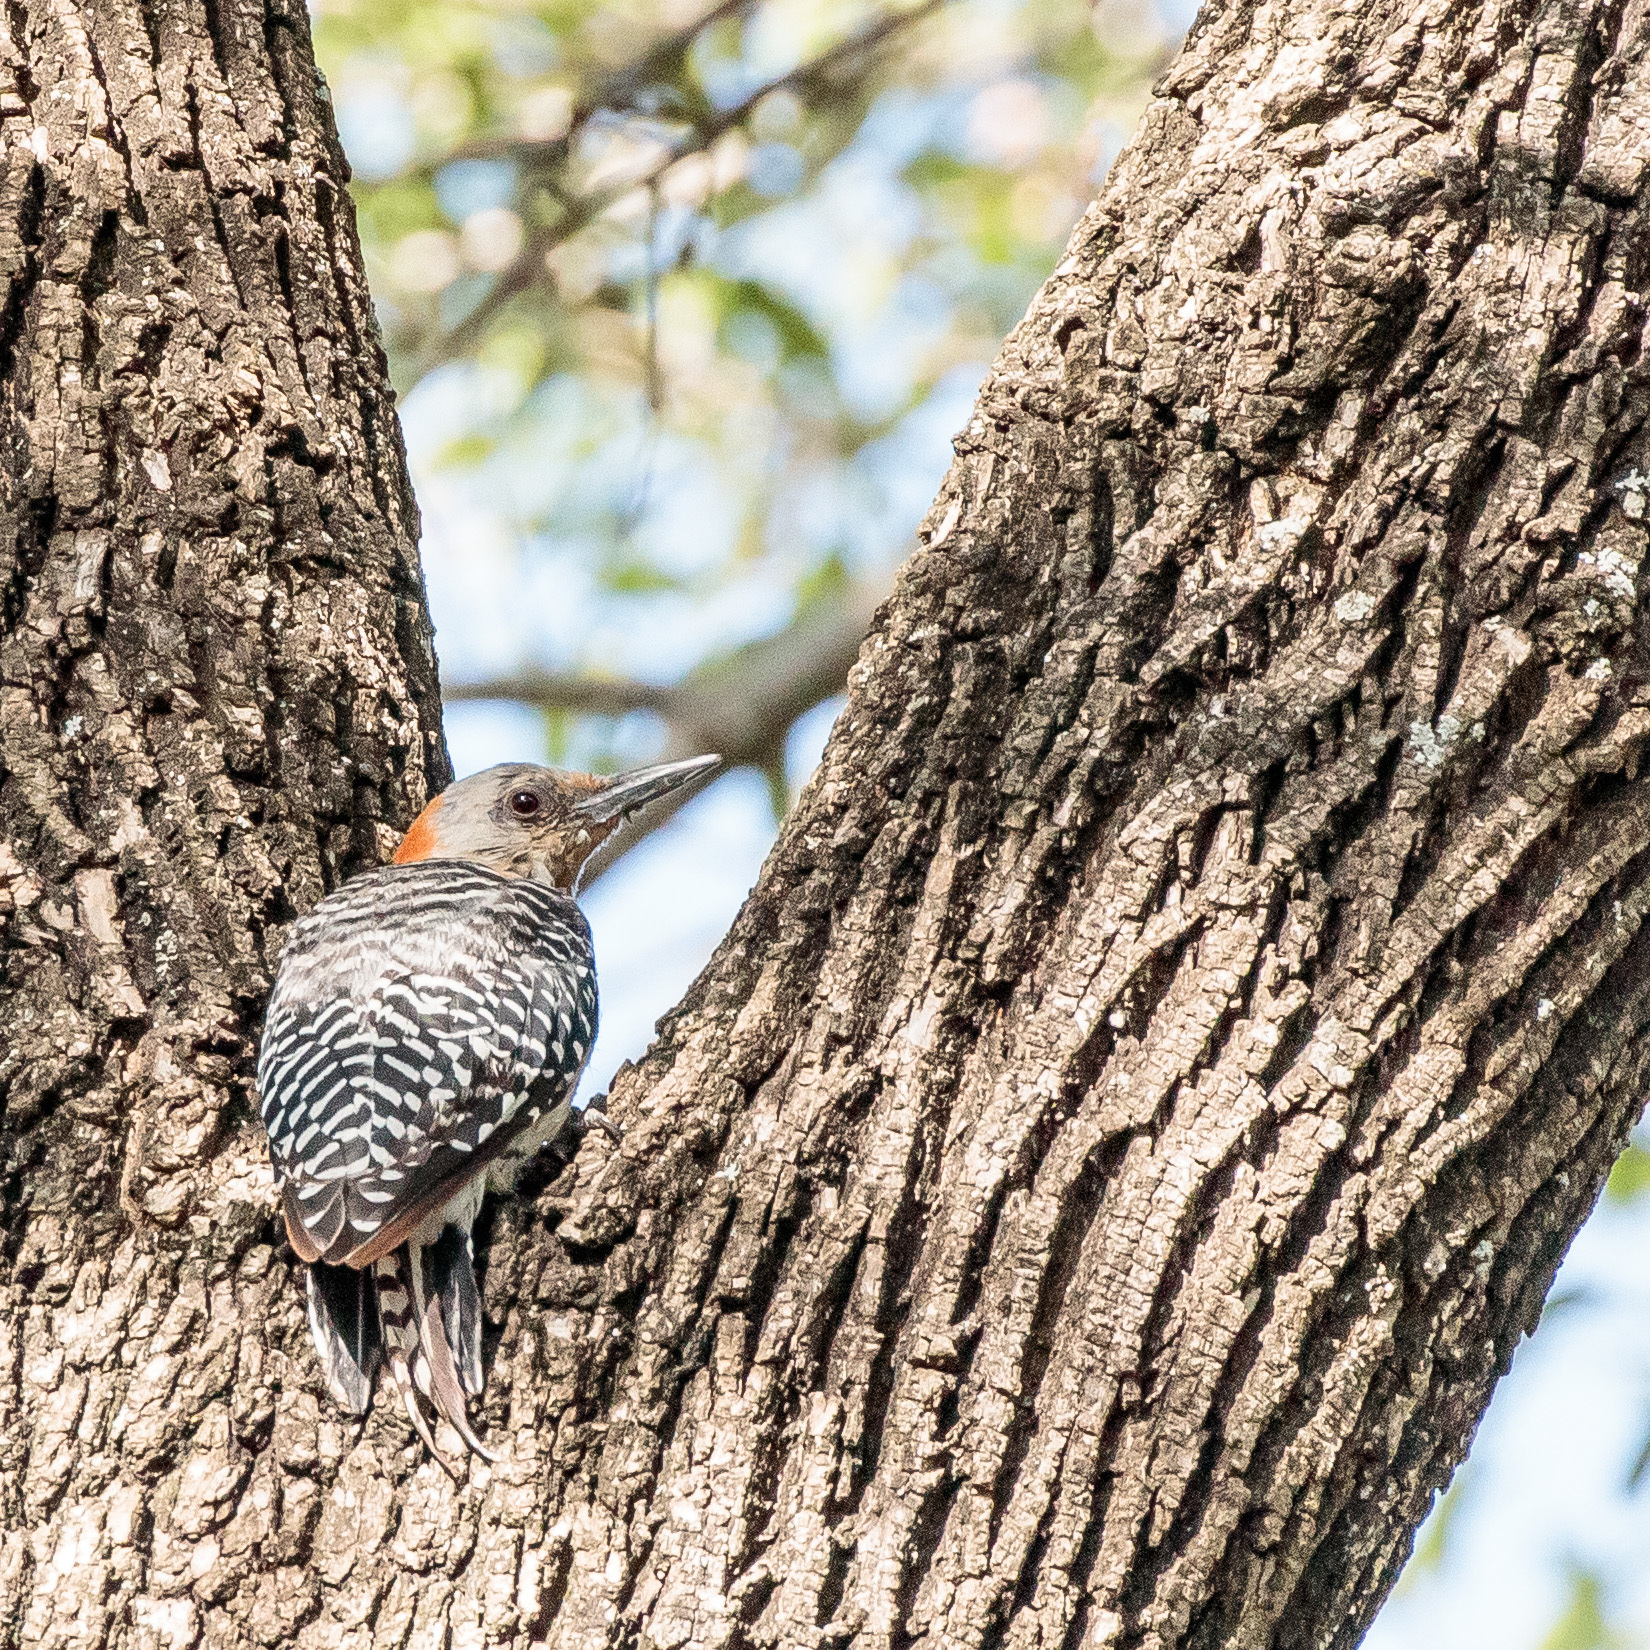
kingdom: Animalia
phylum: Chordata
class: Aves
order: Piciformes
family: Picidae
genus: Melanerpes
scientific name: Melanerpes carolinus
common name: Red-bellied woodpecker
